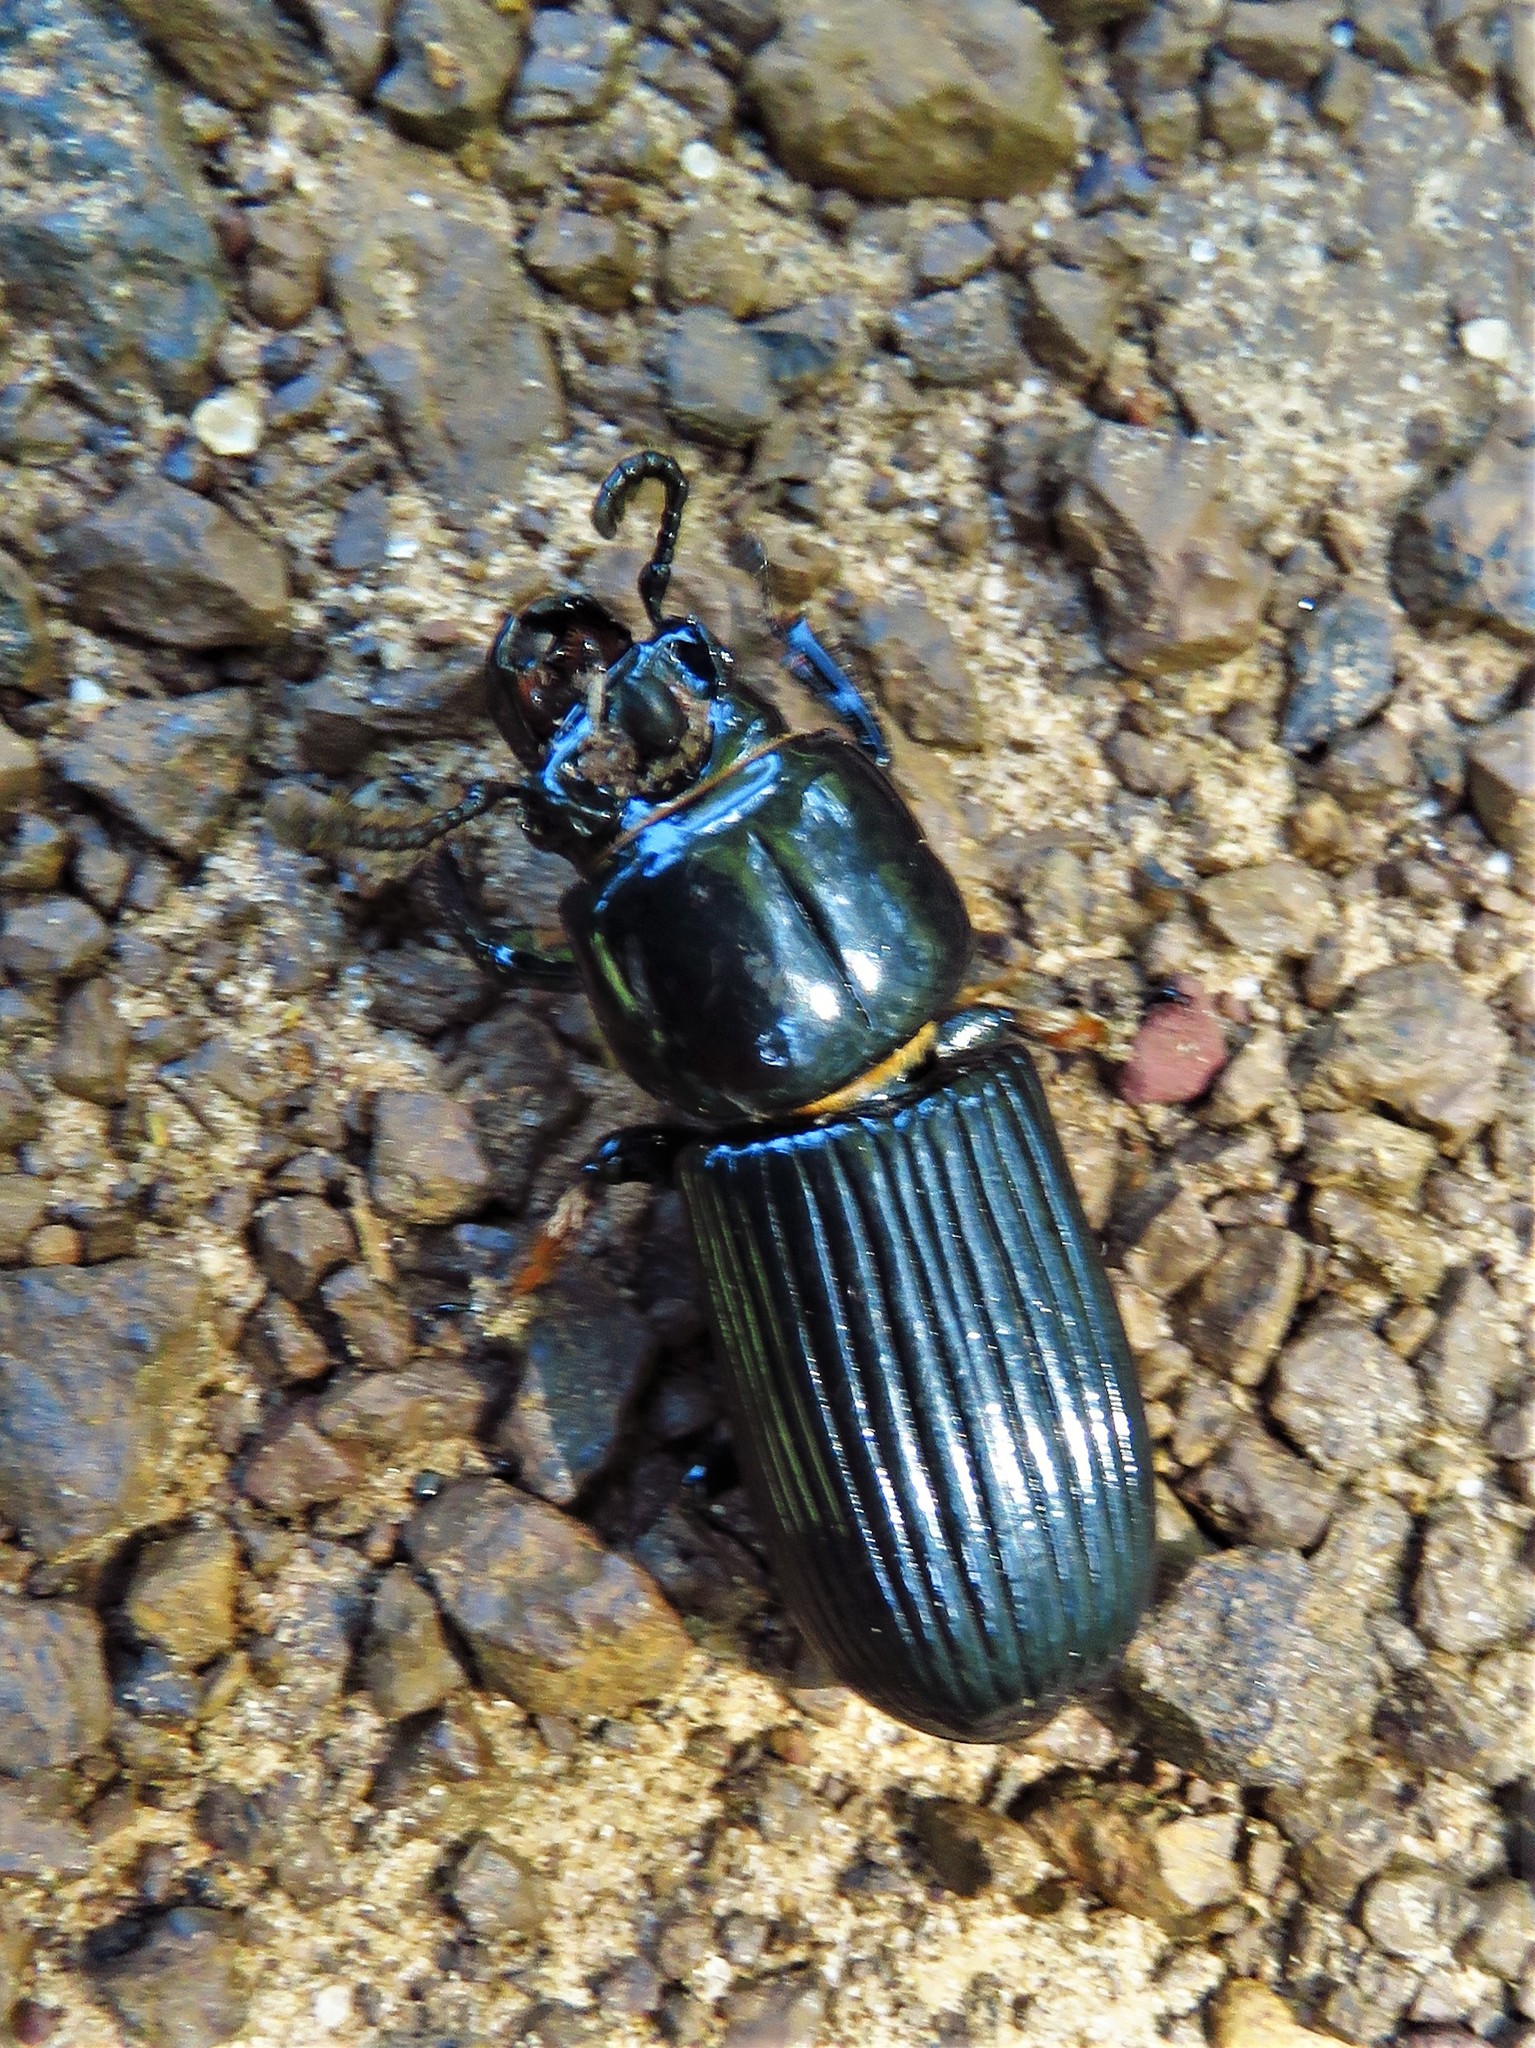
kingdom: Animalia
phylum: Arthropoda
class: Insecta
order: Coleoptera
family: Passalidae
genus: Odontotaenius
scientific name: Odontotaenius disjunctus
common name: Patent leather beetle
